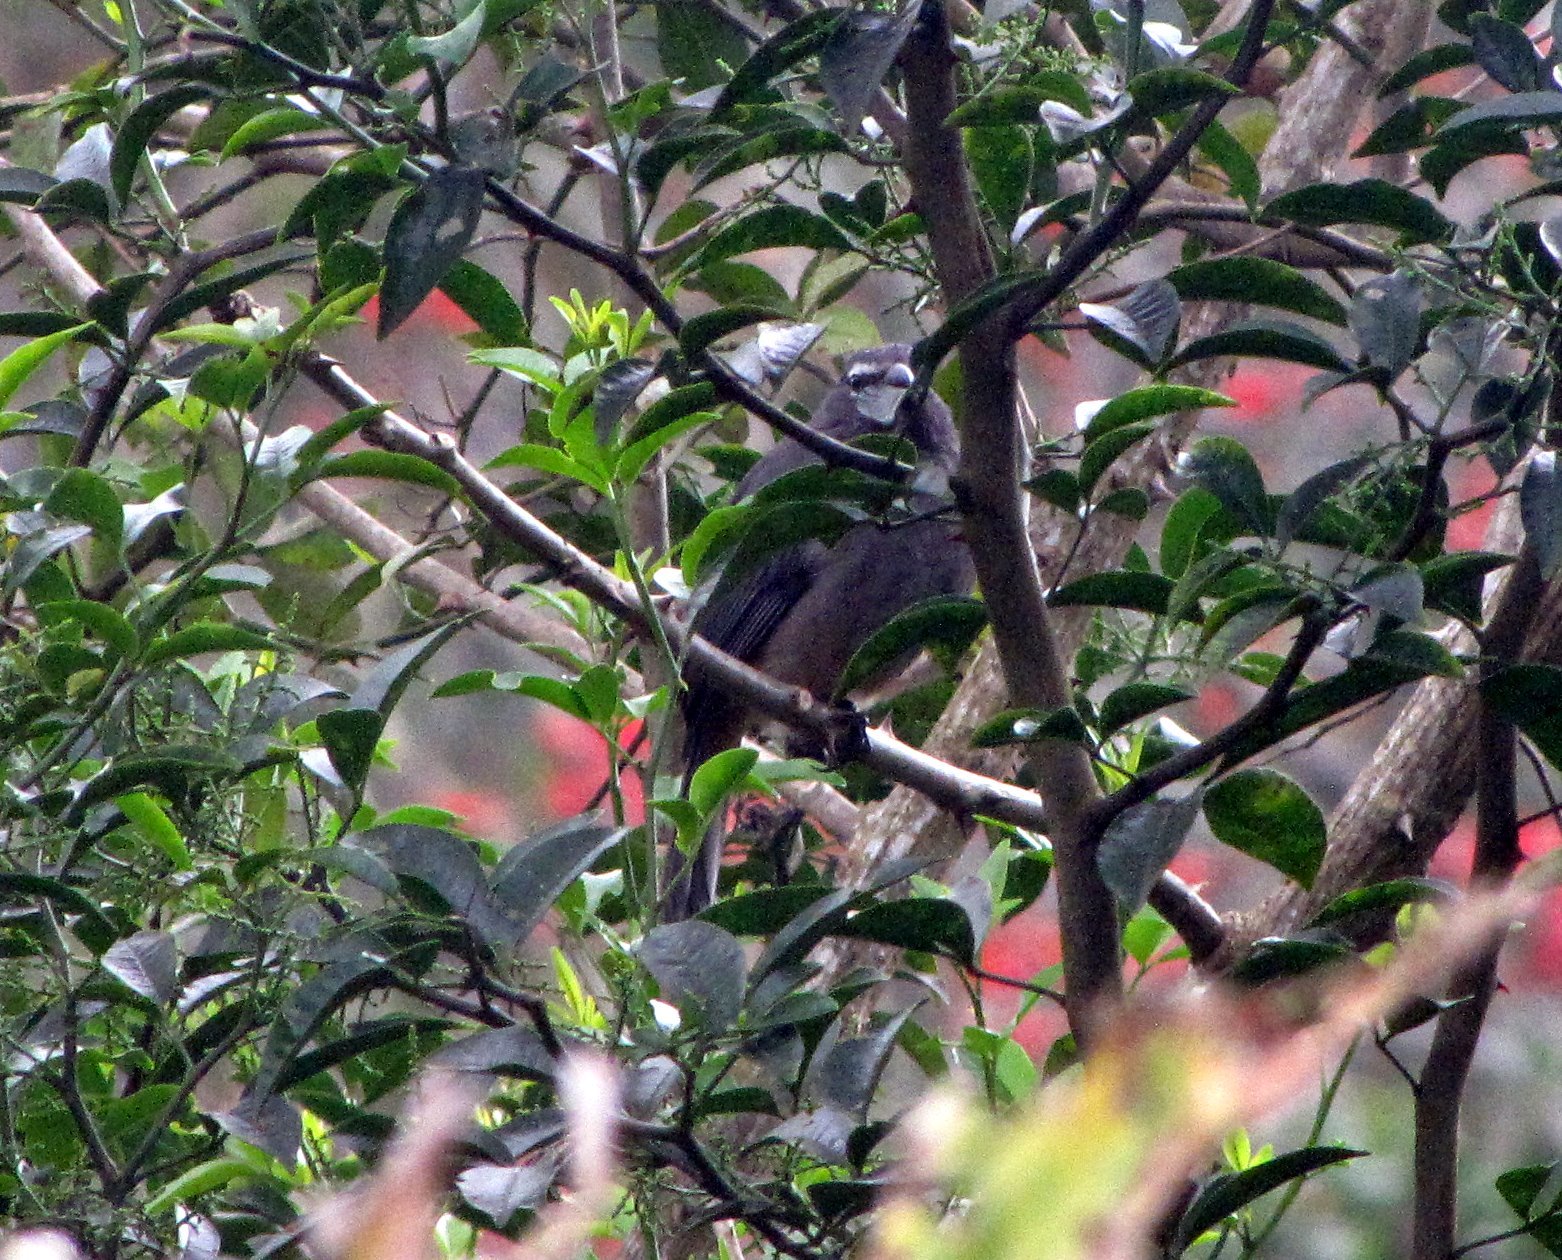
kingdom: Animalia
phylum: Chordata
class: Aves
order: Passeriformes
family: Thraupidae
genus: Saltator
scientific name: Saltator grandis
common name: Cinnamon-bellied saltator
